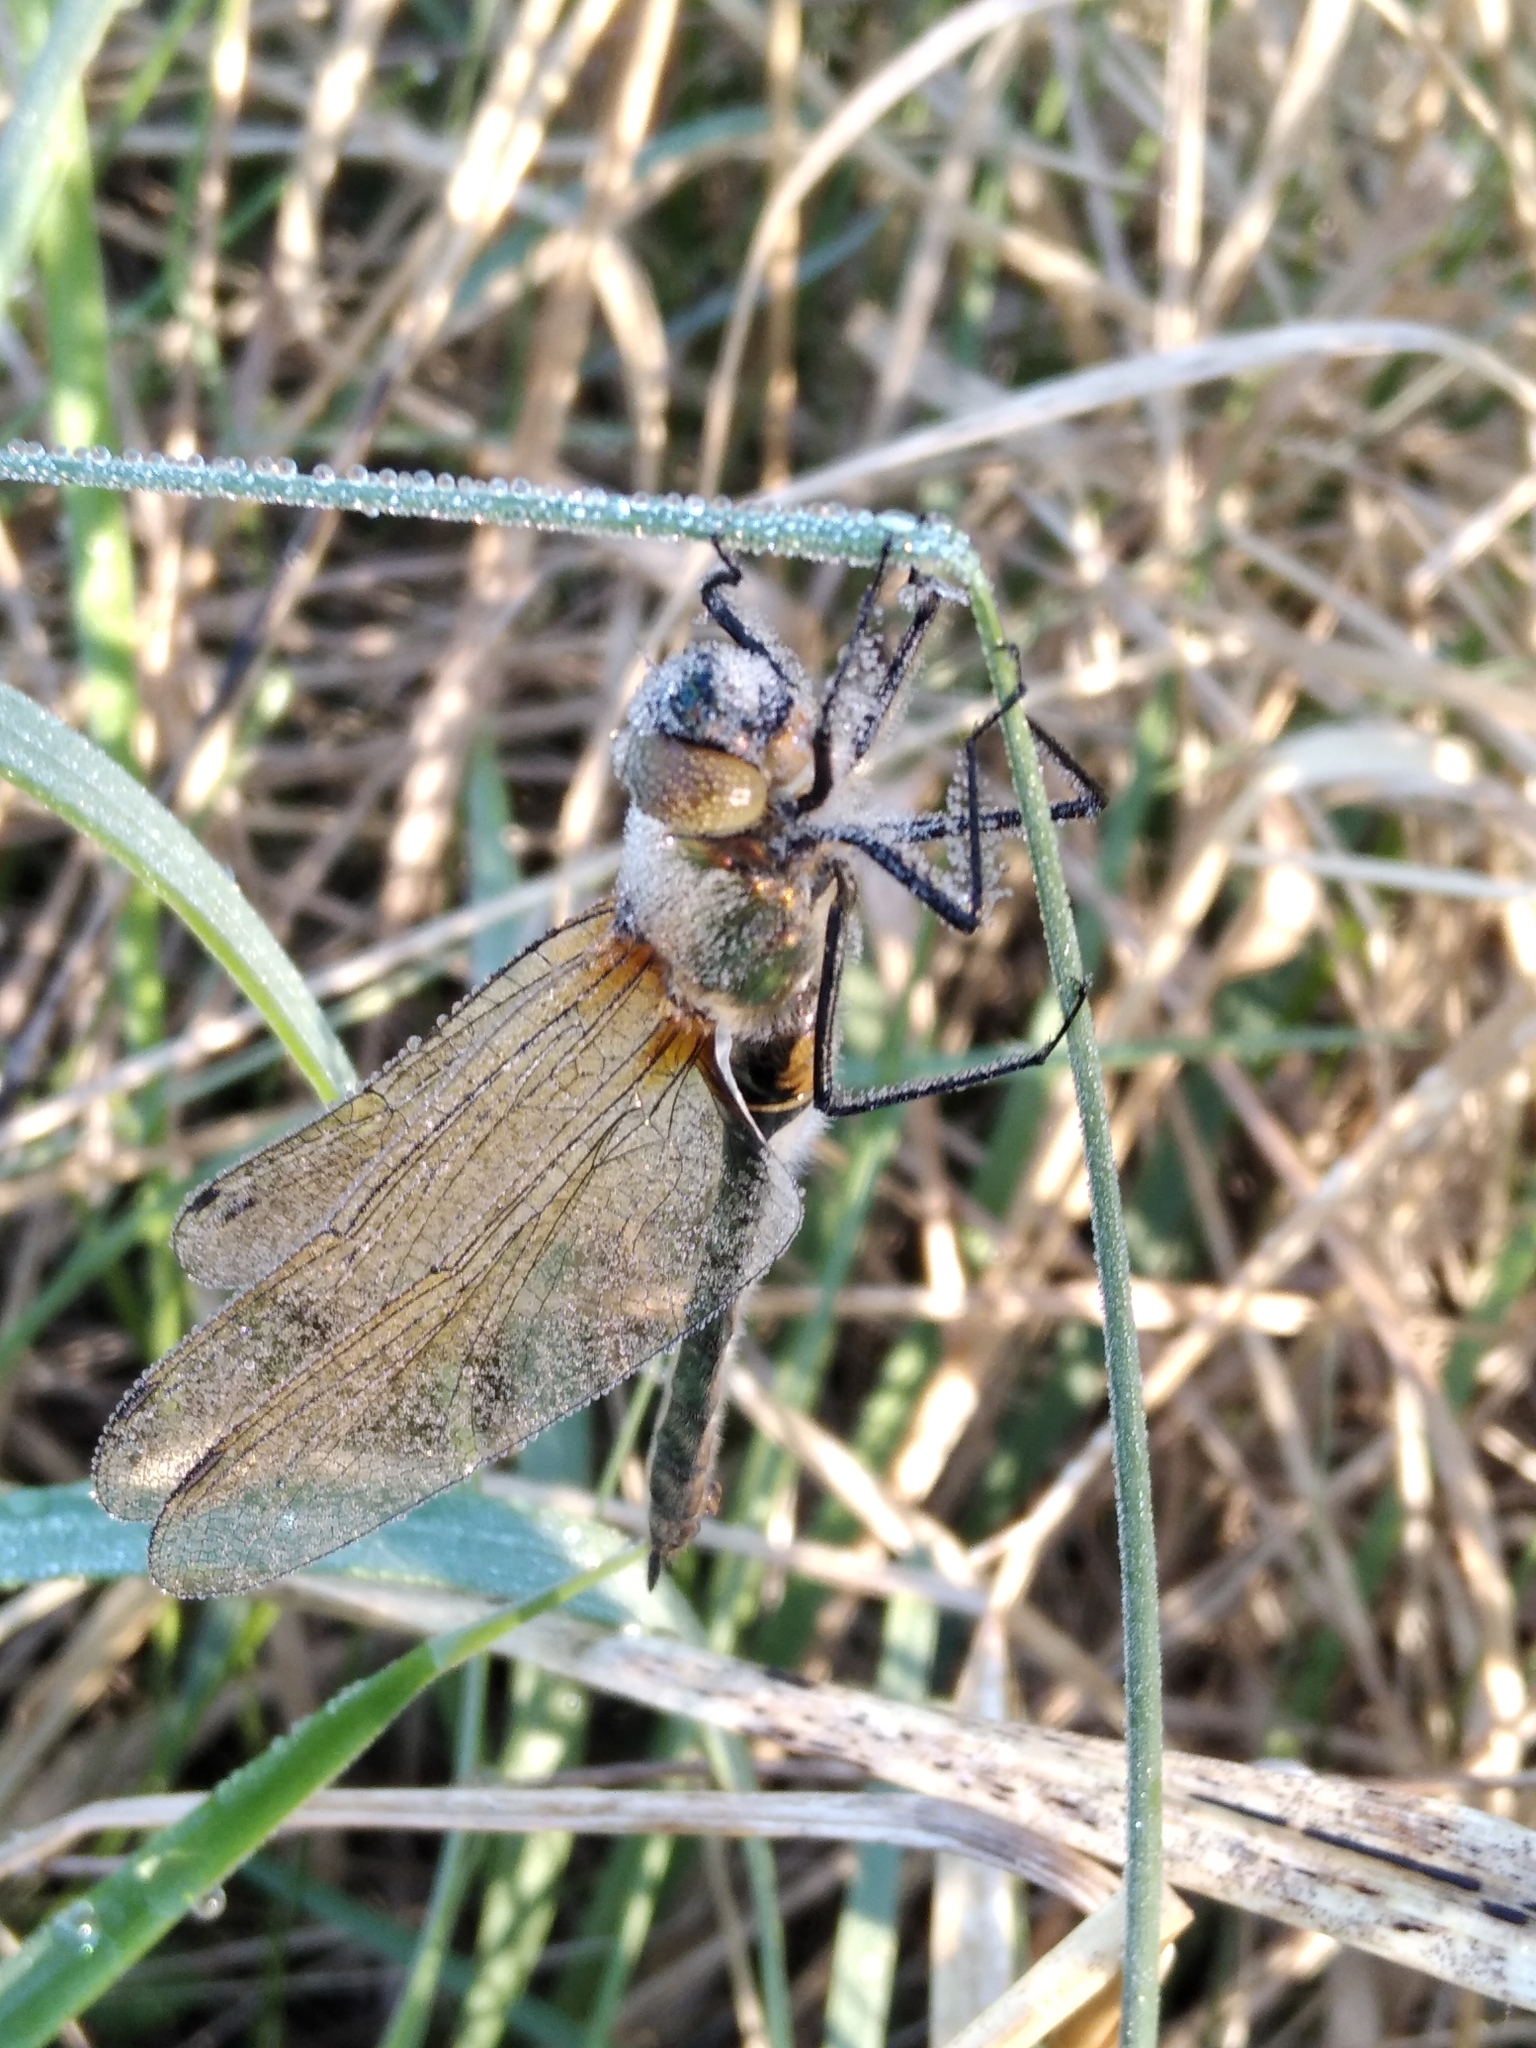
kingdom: Animalia
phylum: Arthropoda
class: Insecta
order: Odonata
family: Corduliidae
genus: Cordulia
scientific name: Cordulia aenea
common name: Downy emerald
